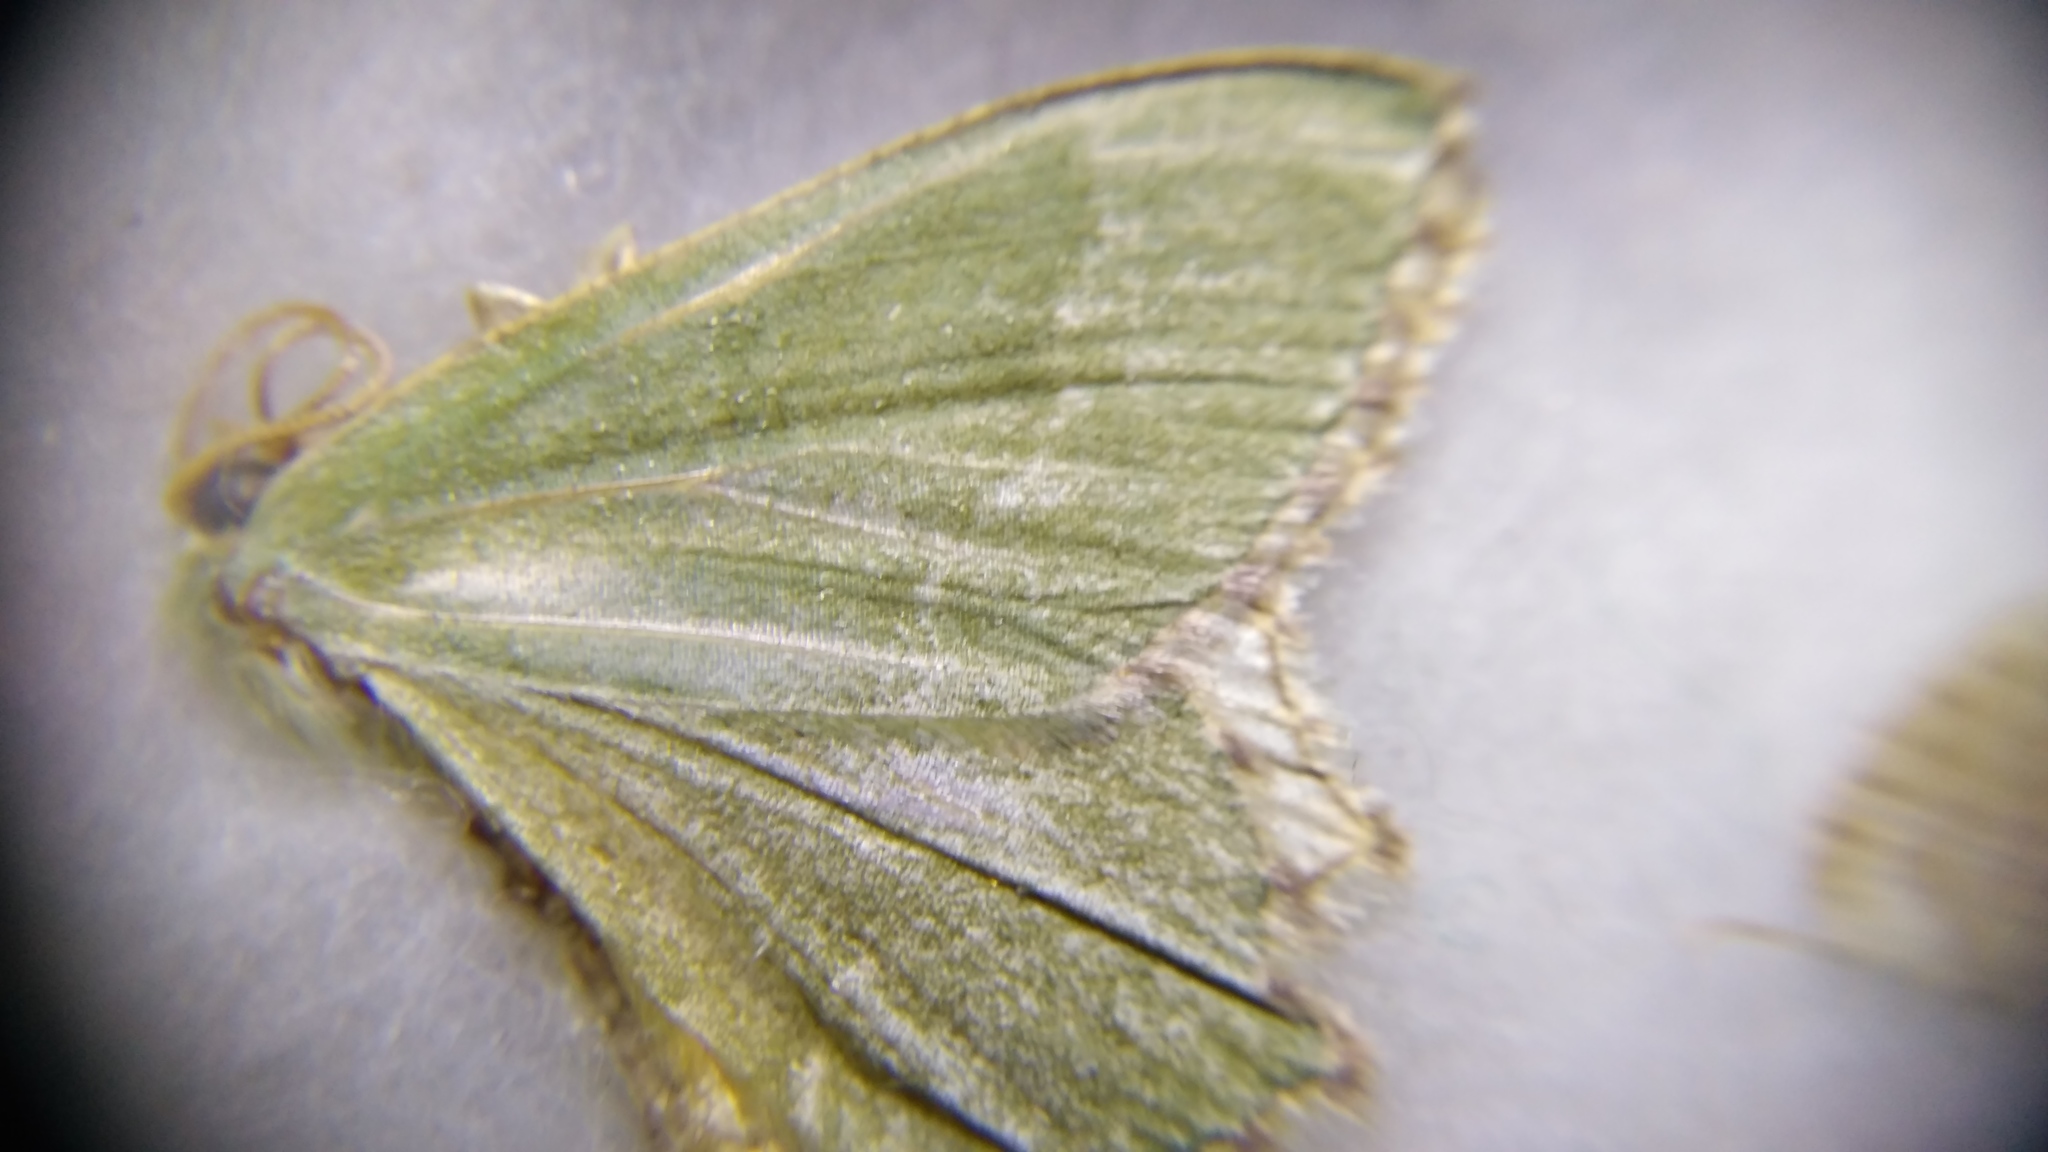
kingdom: Animalia
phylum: Arthropoda
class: Insecta
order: Lepidoptera
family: Geometridae
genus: Hemithea
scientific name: Hemithea aestivaria
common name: Common emerald
